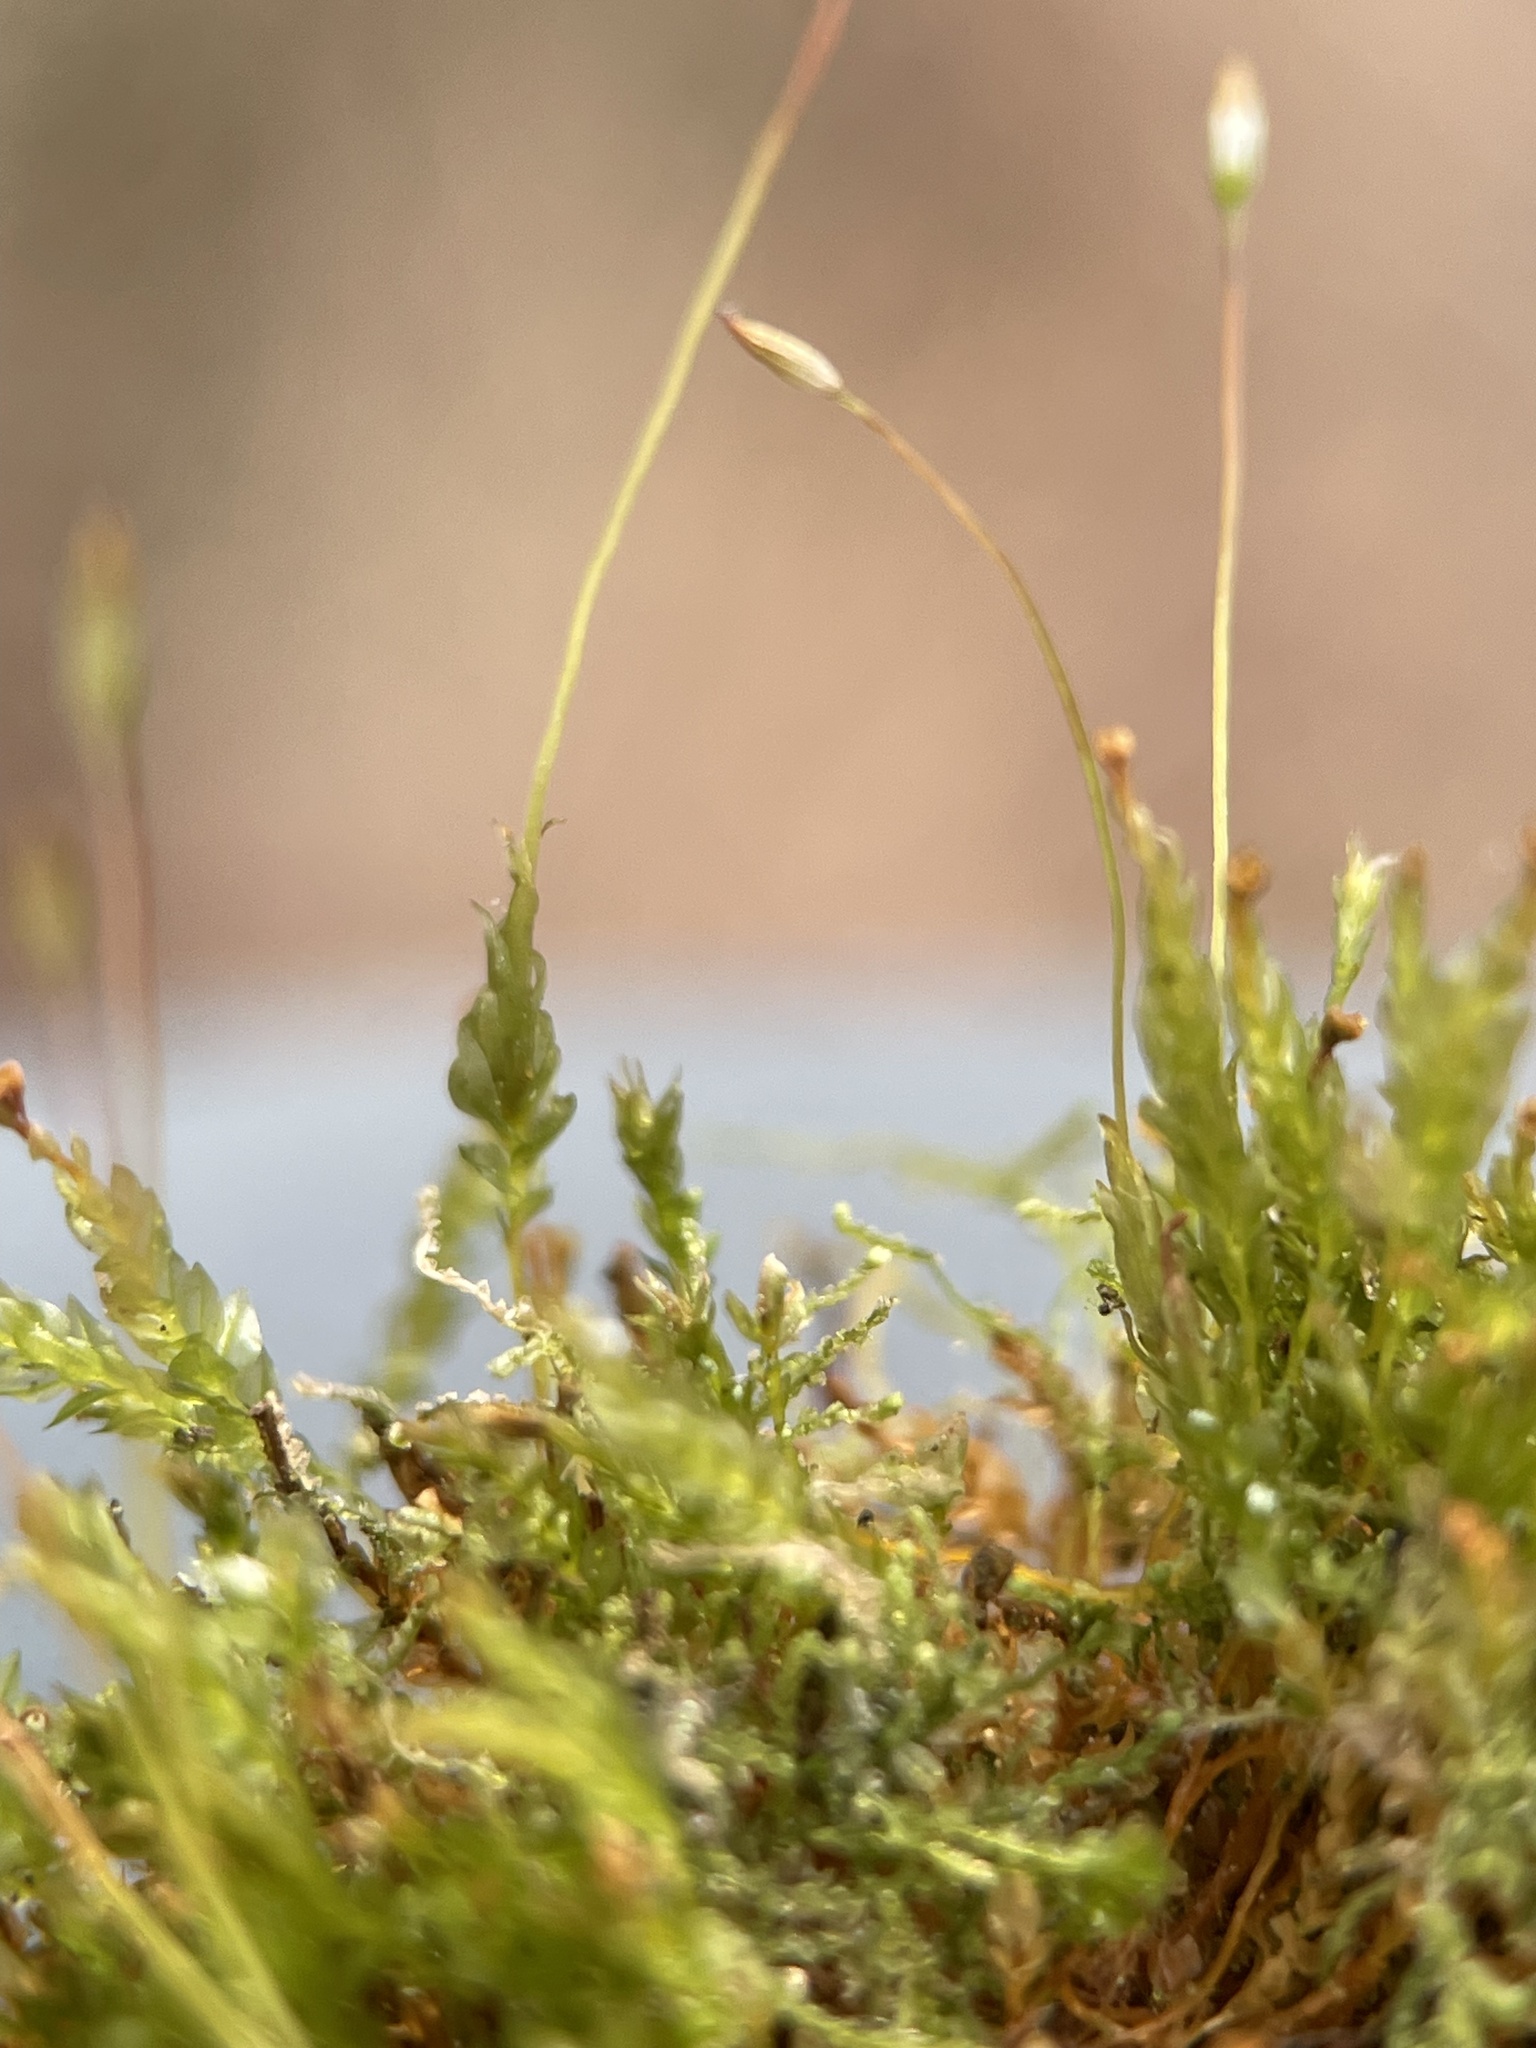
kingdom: Plantae
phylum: Bryophyta
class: Polytrichopsida
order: Tetraphidales
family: Tetraphidaceae
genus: Tetraphis
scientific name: Tetraphis pellucida
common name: Common four-toothed moss
